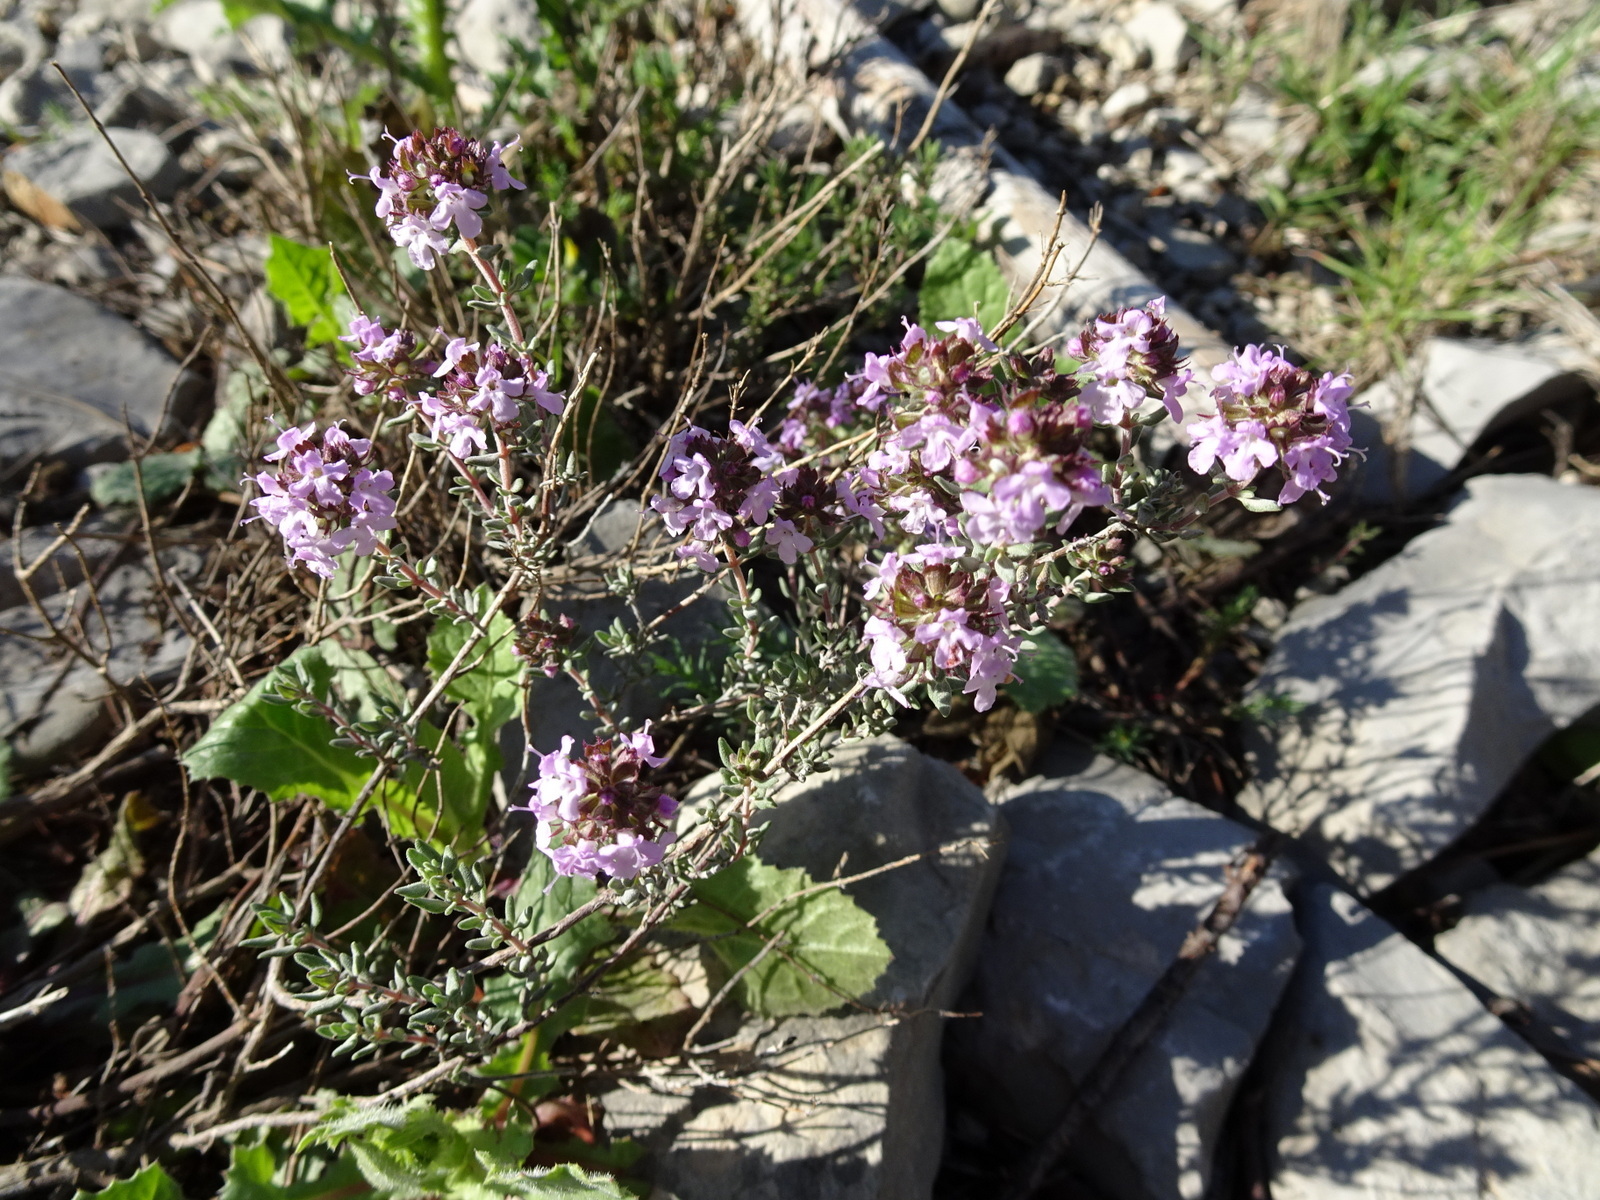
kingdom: Plantae
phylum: Tracheophyta
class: Magnoliopsida
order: Lamiales
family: Lamiaceae
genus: Thymus
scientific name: Thymus vulgaris
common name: Garden thyme
